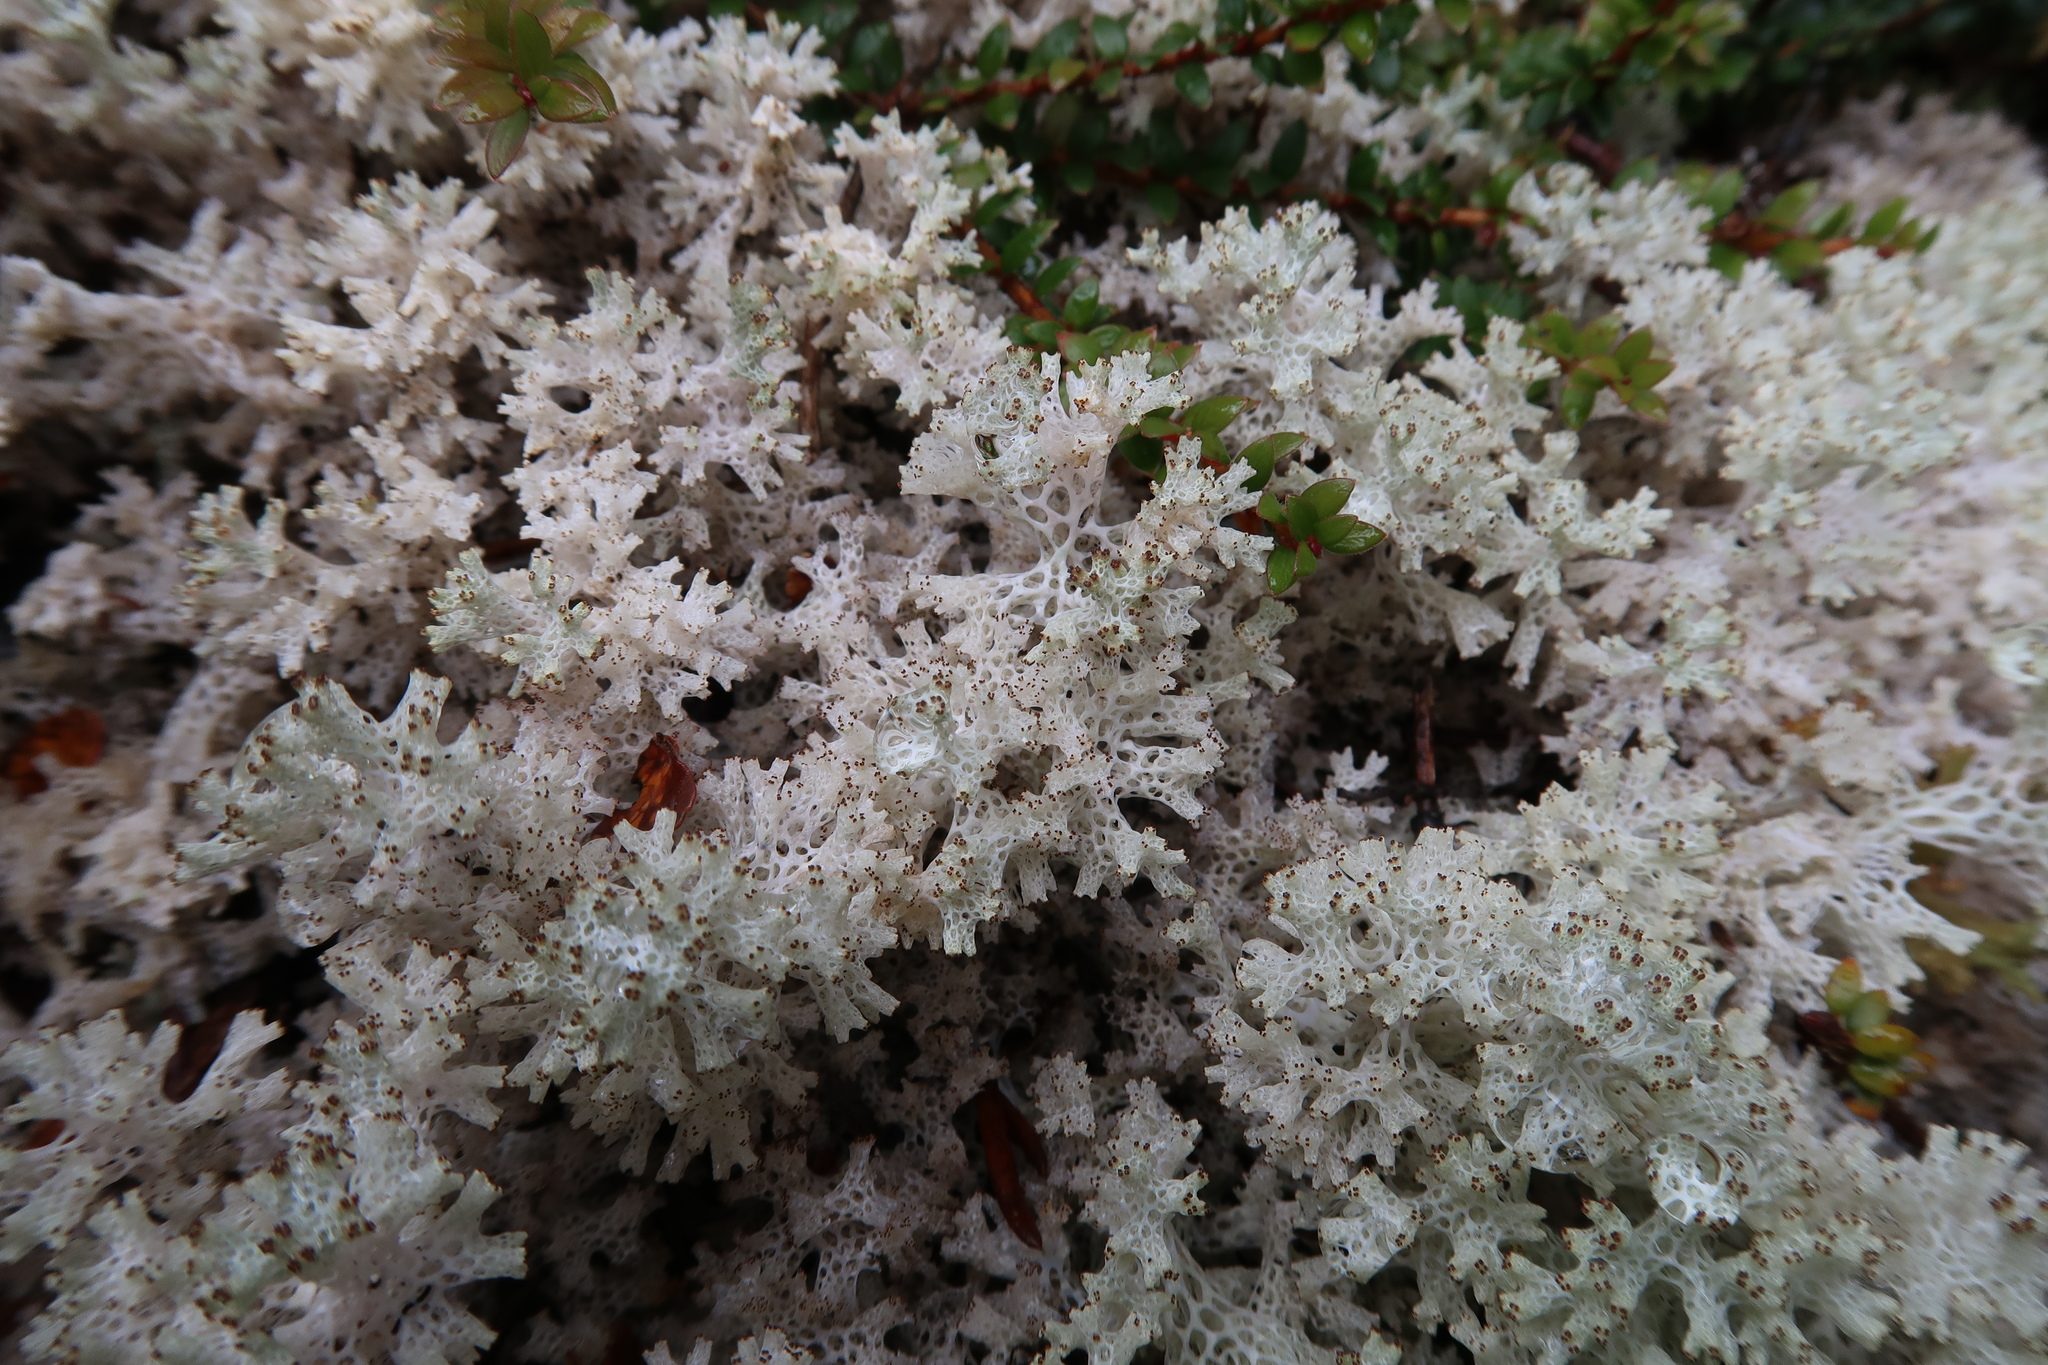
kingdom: Fungi
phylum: Ascomycota
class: Lecanoromycetes
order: Lecanorales
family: Cladoniaceae
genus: Pulchrocladia
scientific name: Pulchrocladia retipora
